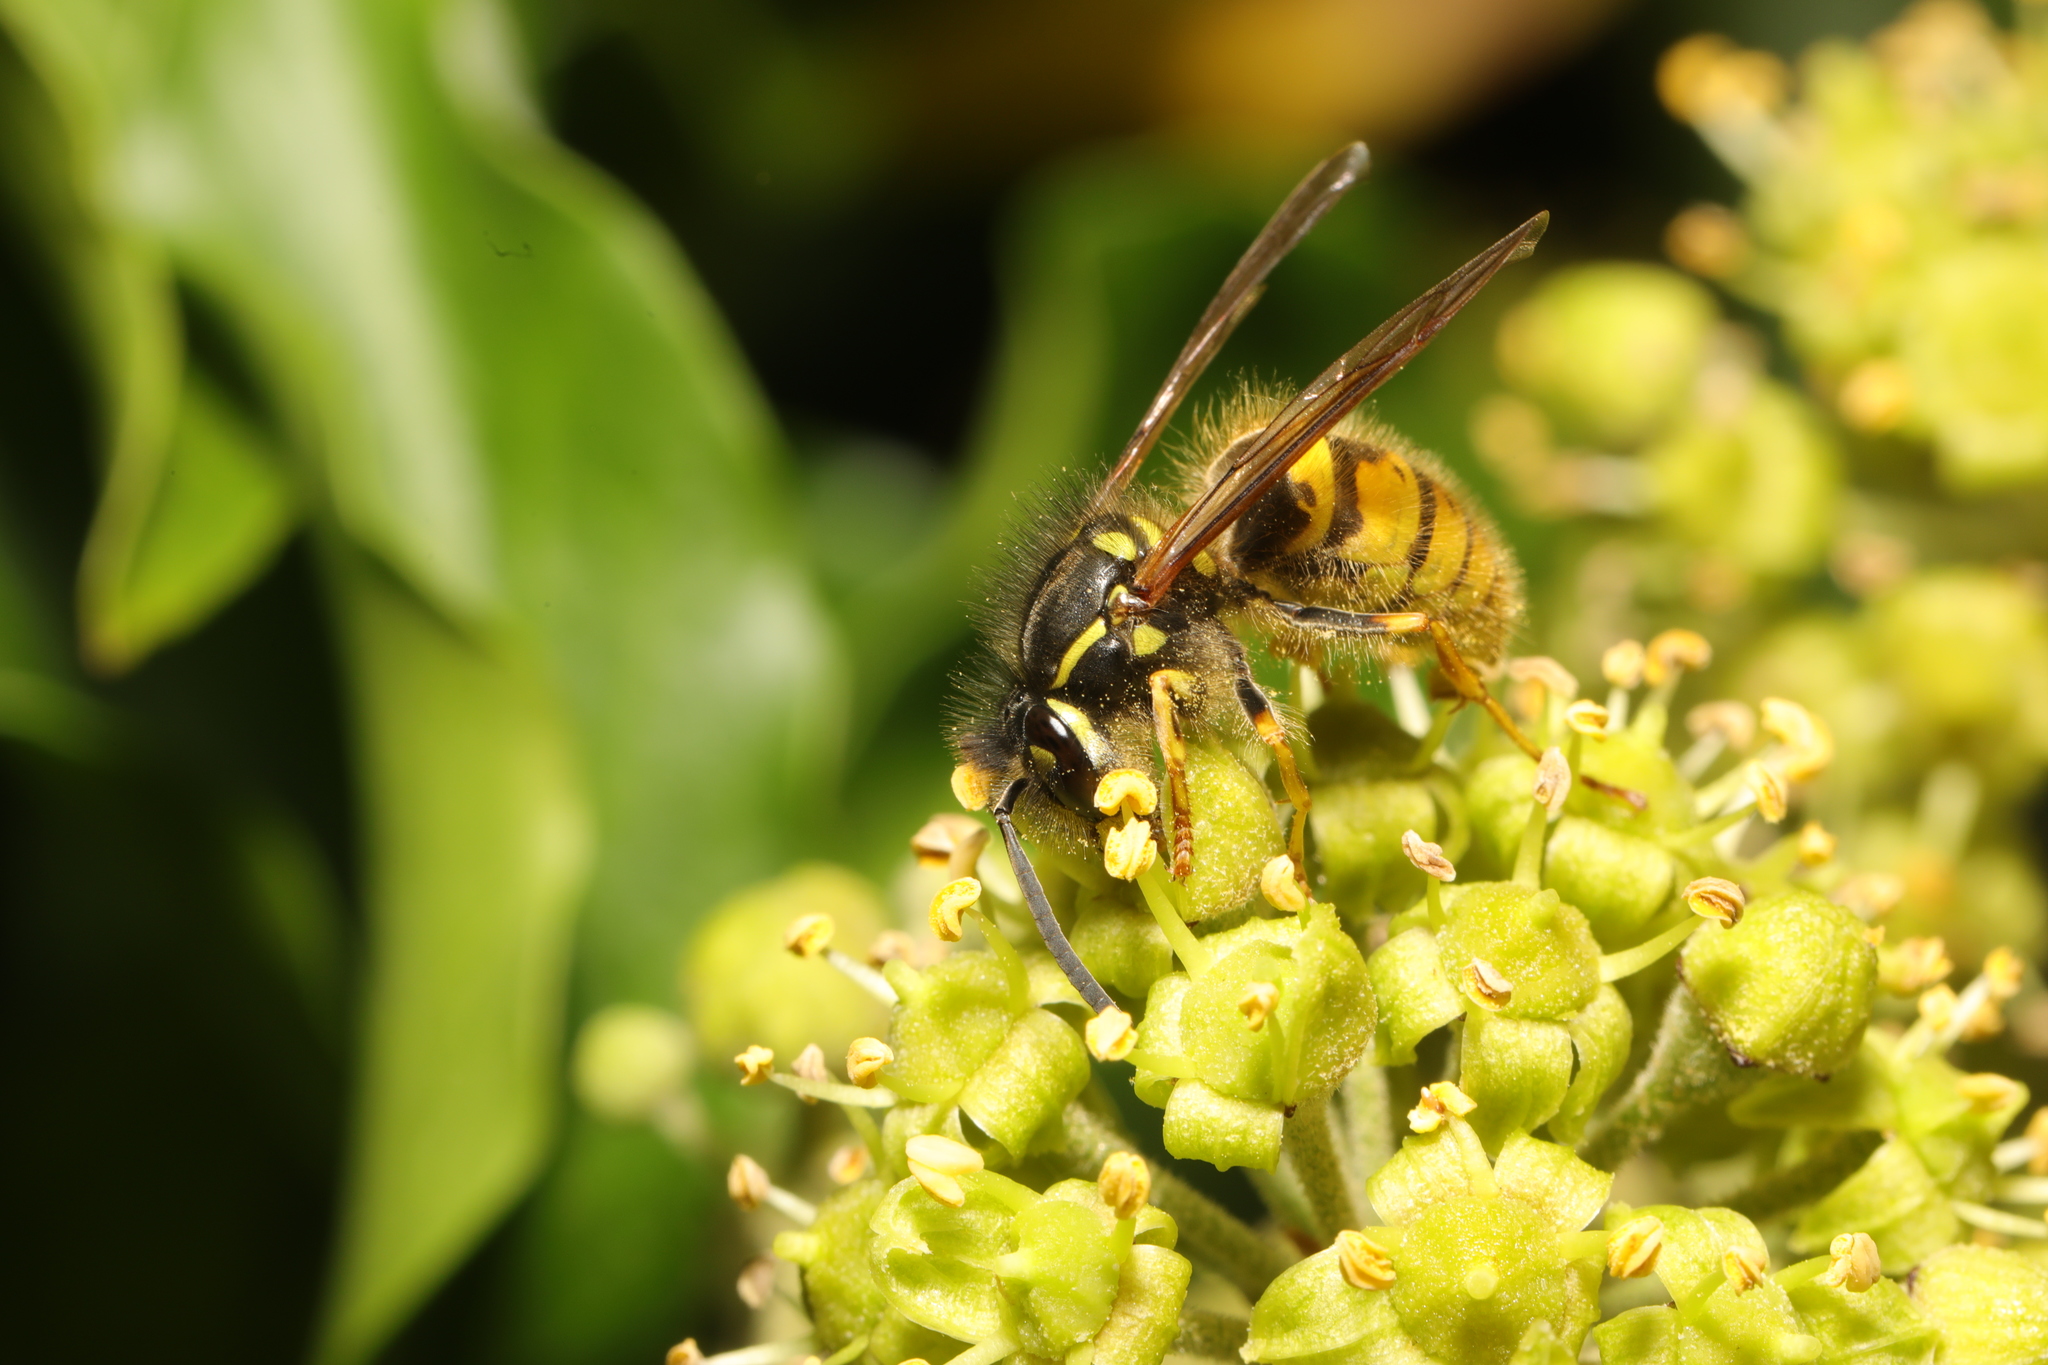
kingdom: Animalia
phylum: Arthropoda
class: Insecta
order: Hymenoptera
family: Vespidae
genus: Vespula
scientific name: Vespula vulgaris
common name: Common wasp
